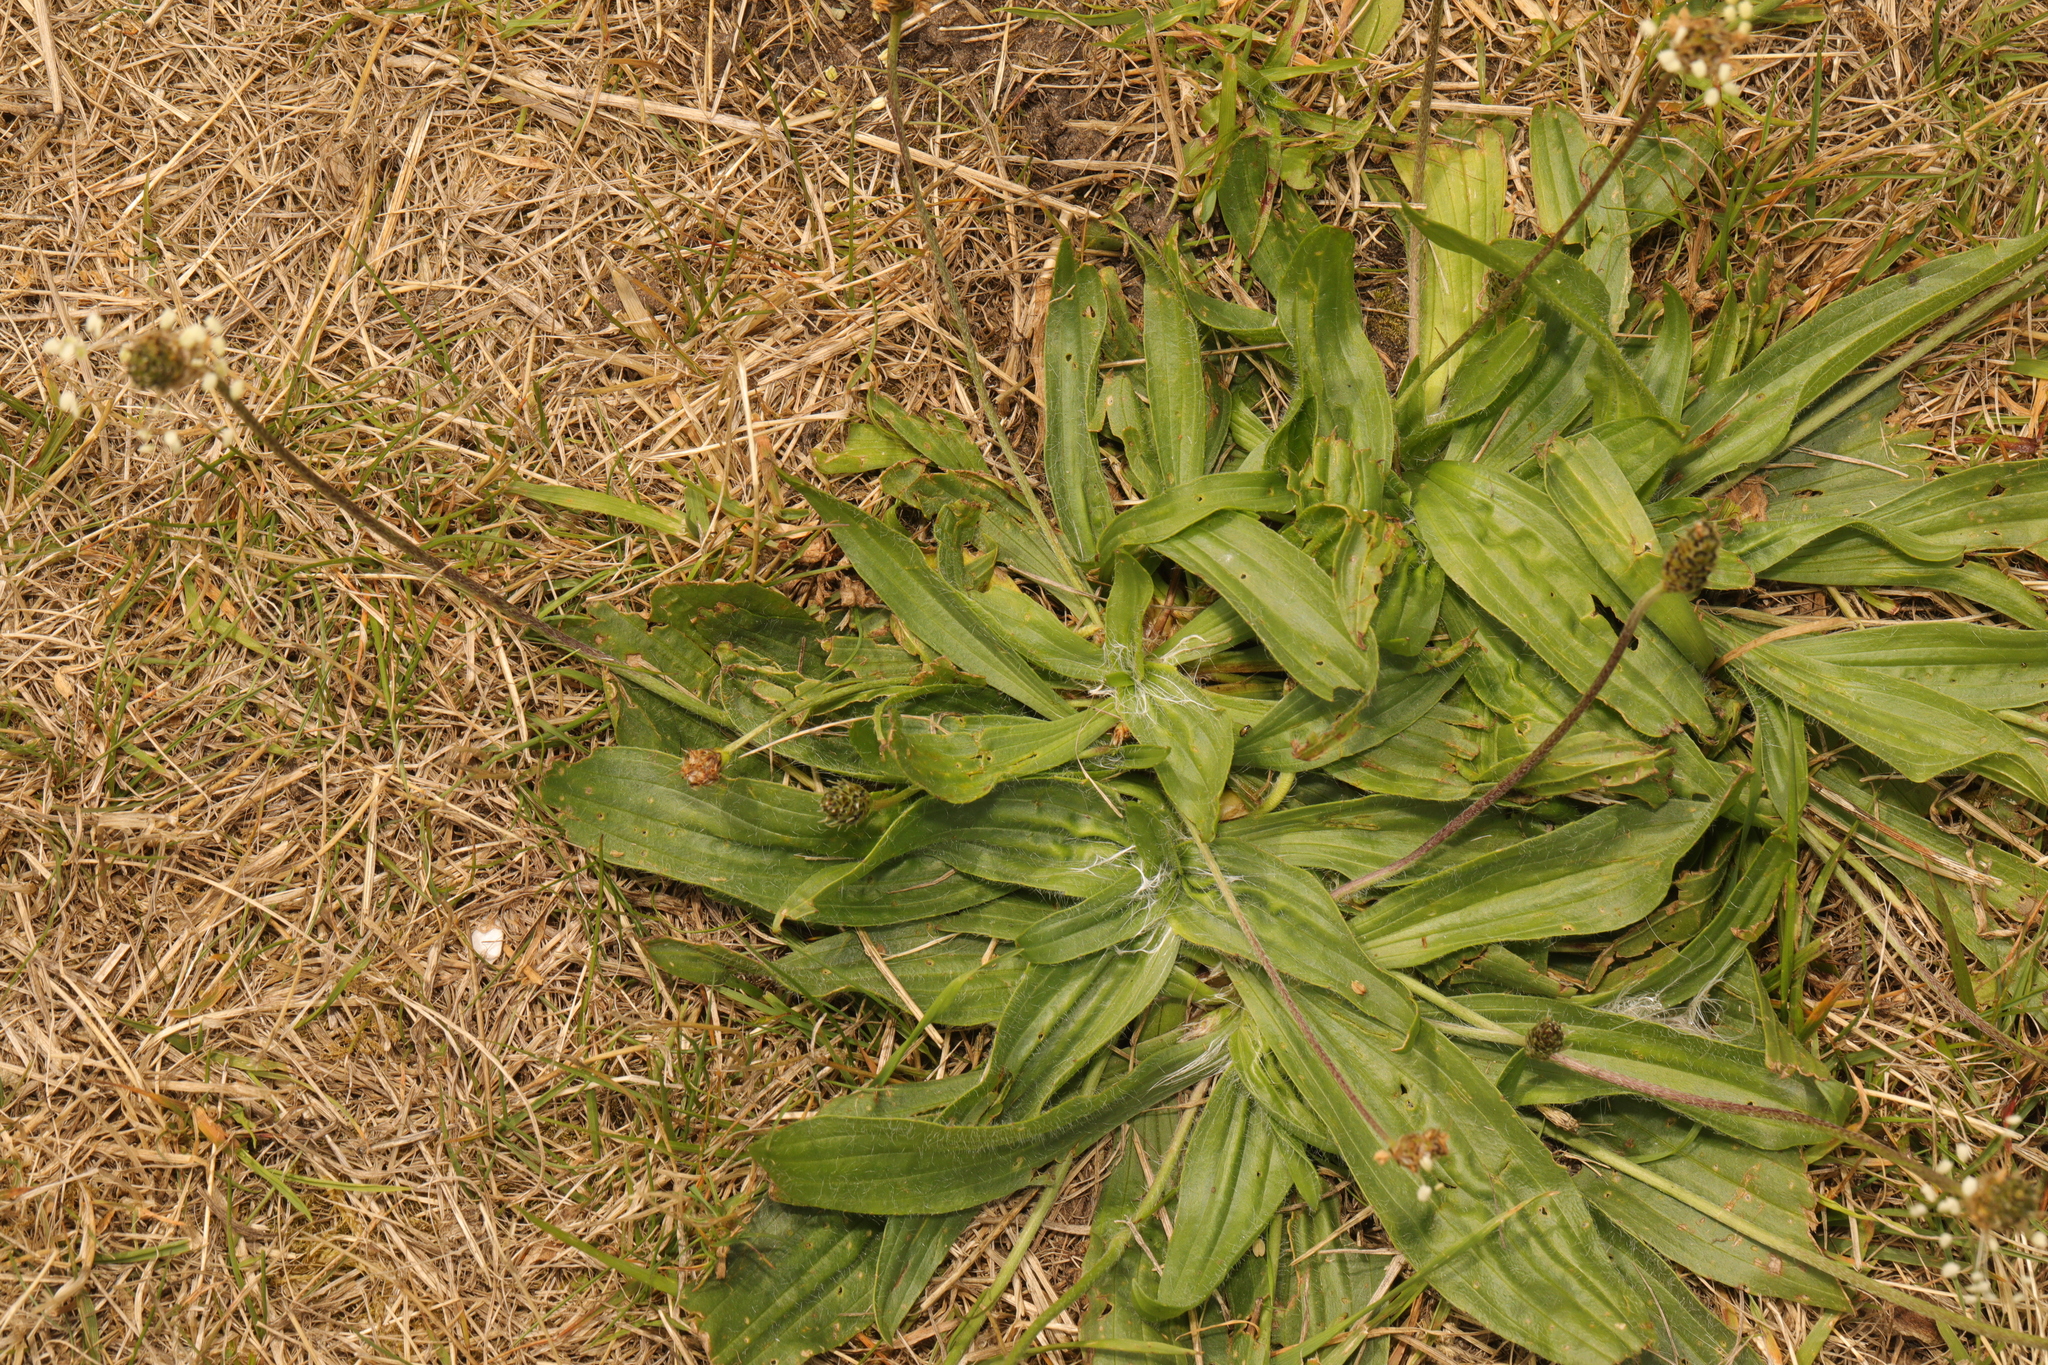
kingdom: Plantae
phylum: Tracheophyta
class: Magnoliopsida
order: Lamiales
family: Plantaginaceae
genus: Plantago
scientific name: Plantago lanceolata
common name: Ribwort plantain
